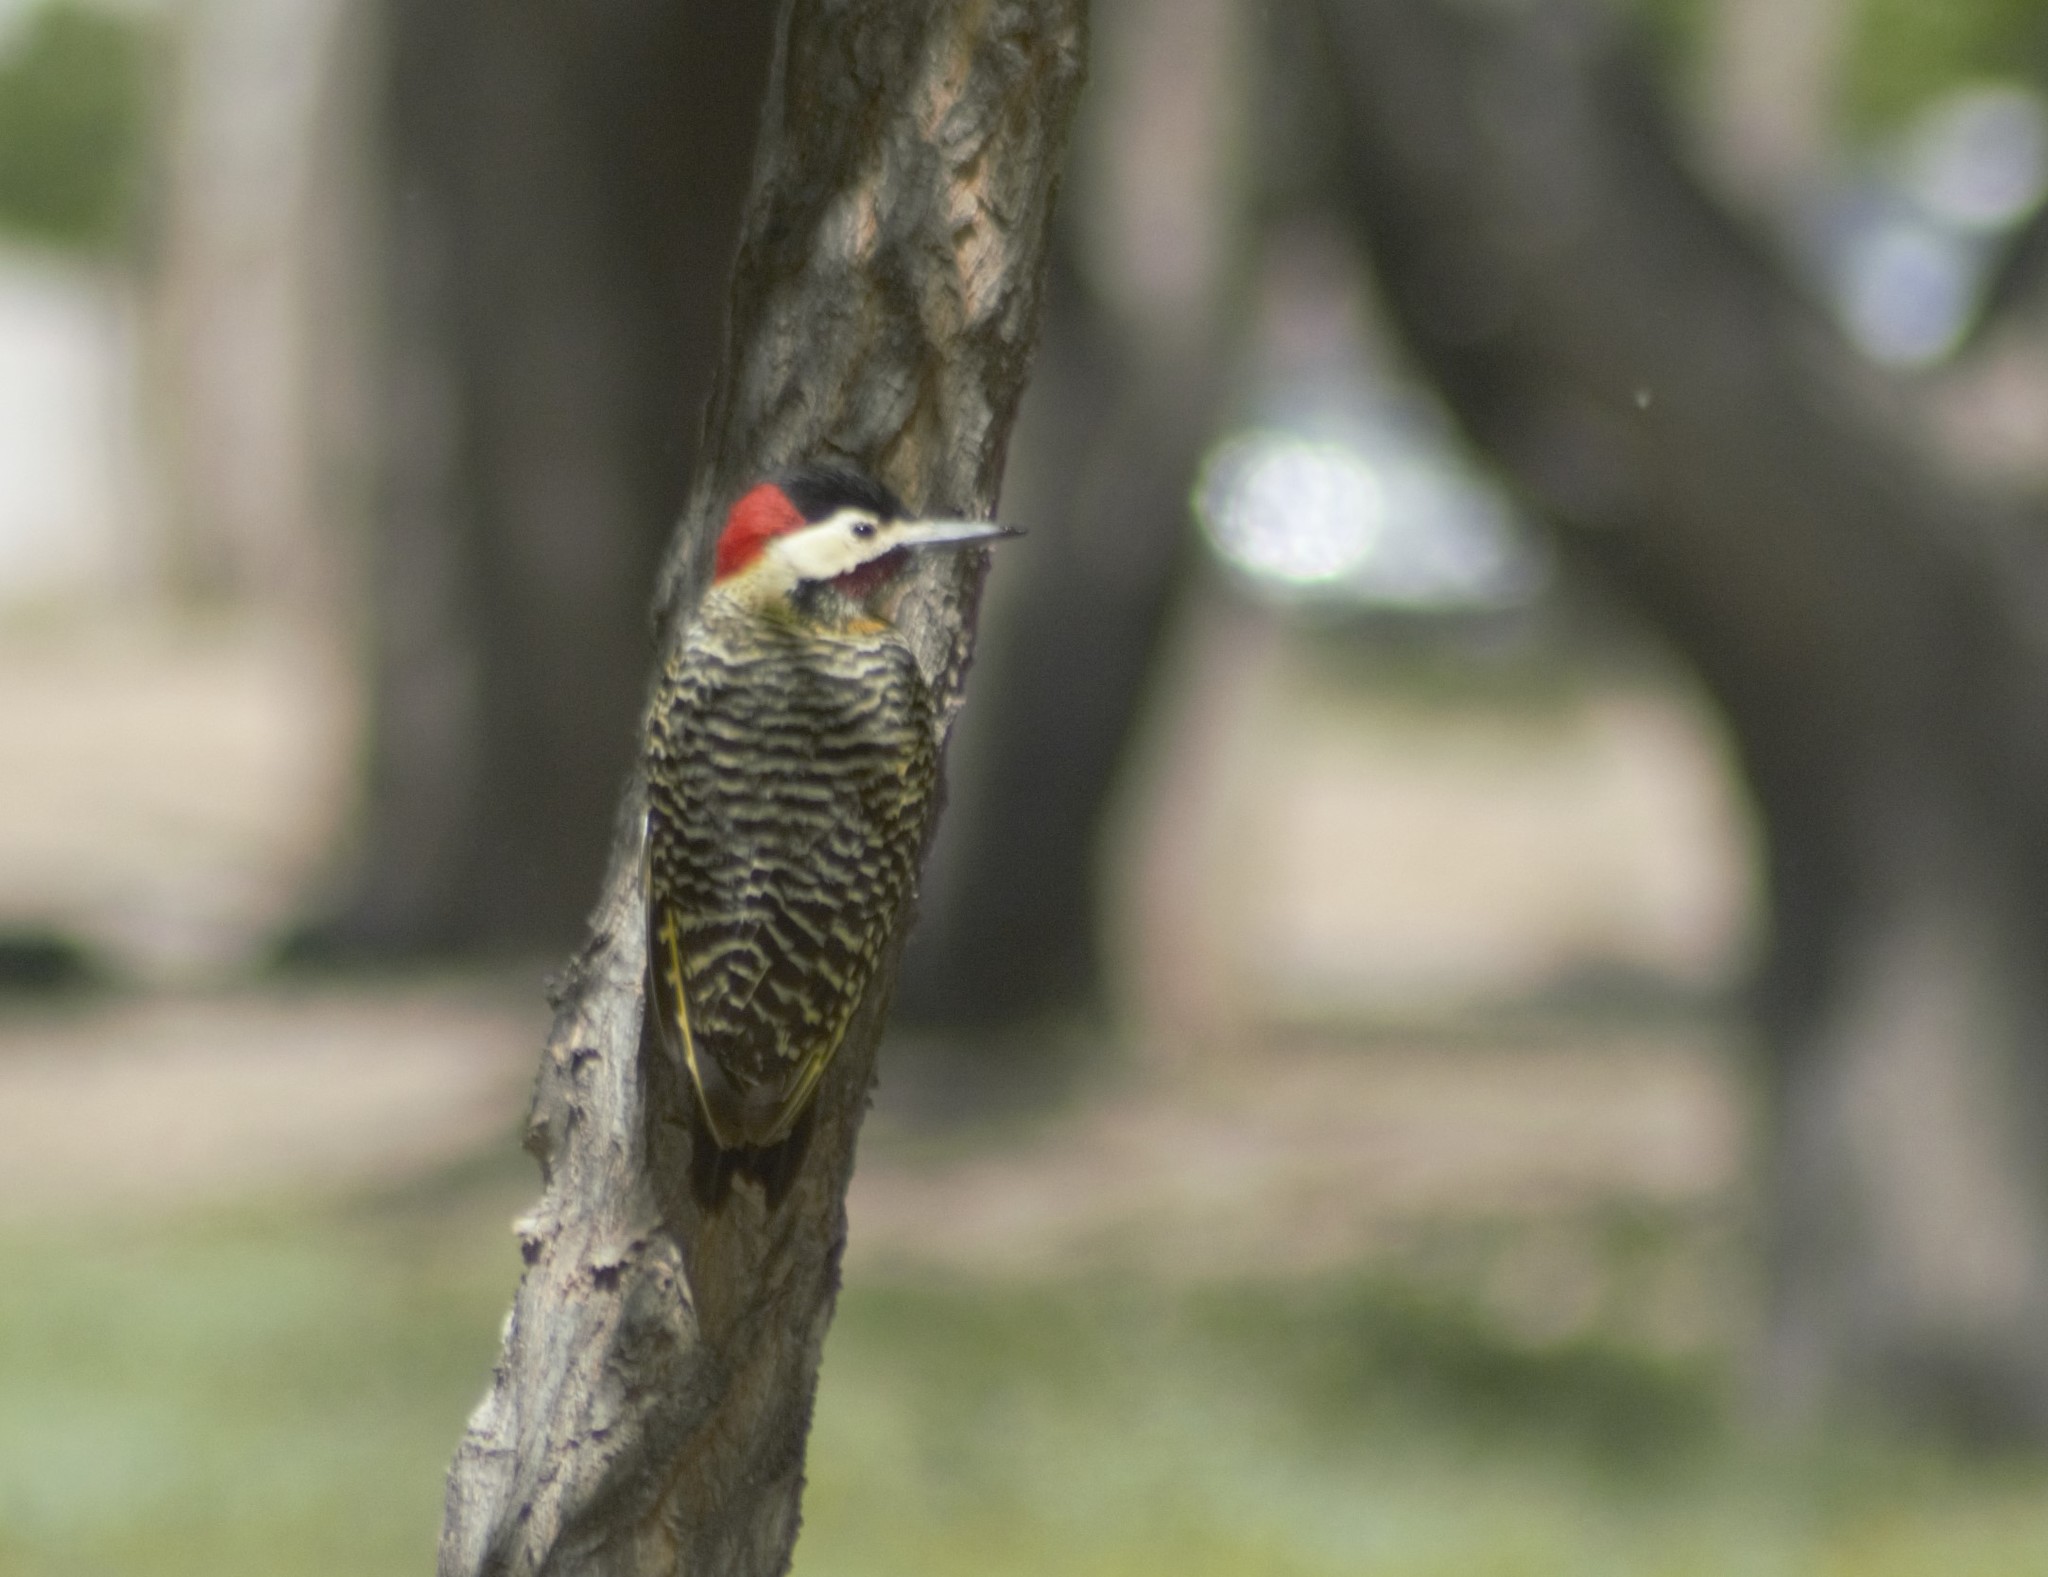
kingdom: Animalia
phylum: Chordata
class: Aves
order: Piciformes
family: Picidae
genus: Colaptes
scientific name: Colaptes melanochloros
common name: Green-barred woodpecker
